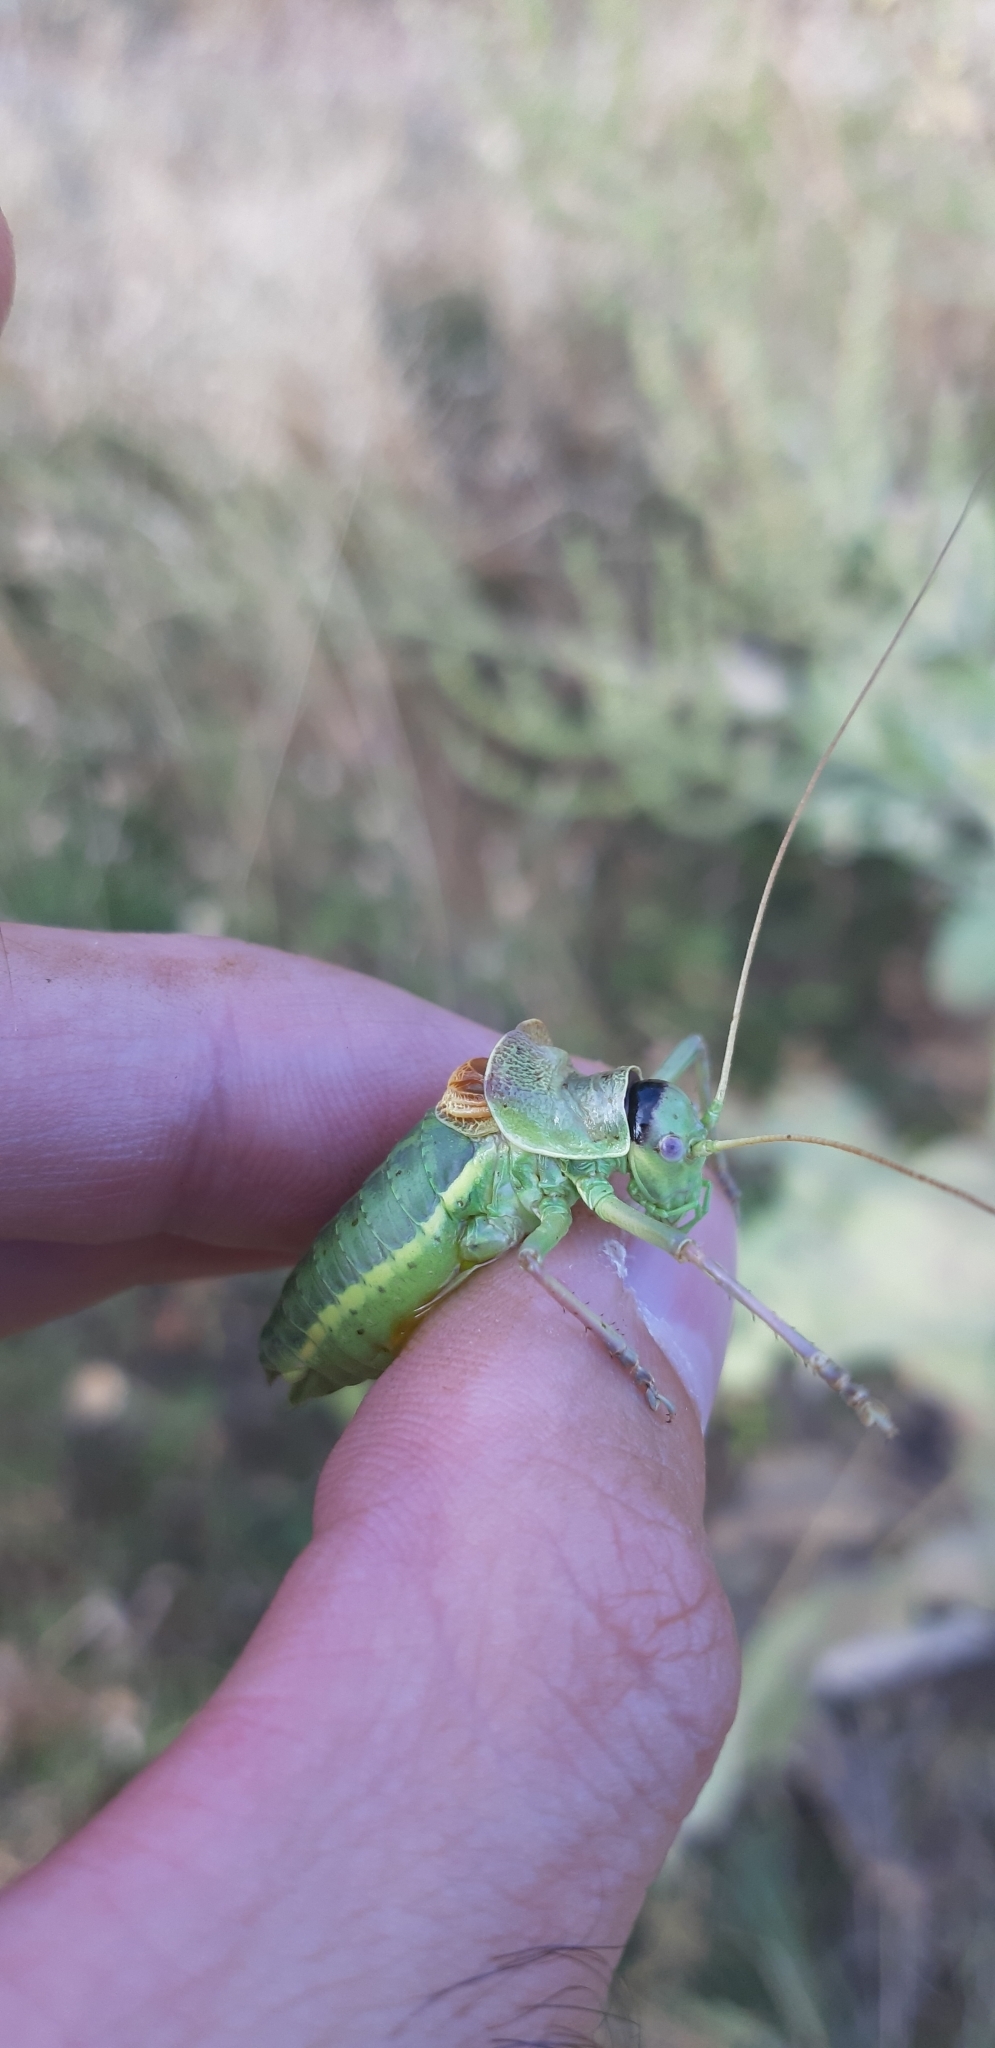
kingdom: Animalia
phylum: Arthropoda
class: Insecta
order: Orthoptera
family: Tettigoniidae
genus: Ephippiger
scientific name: Ephippiger melisi
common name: Abruzzo saddle bush-cricket
